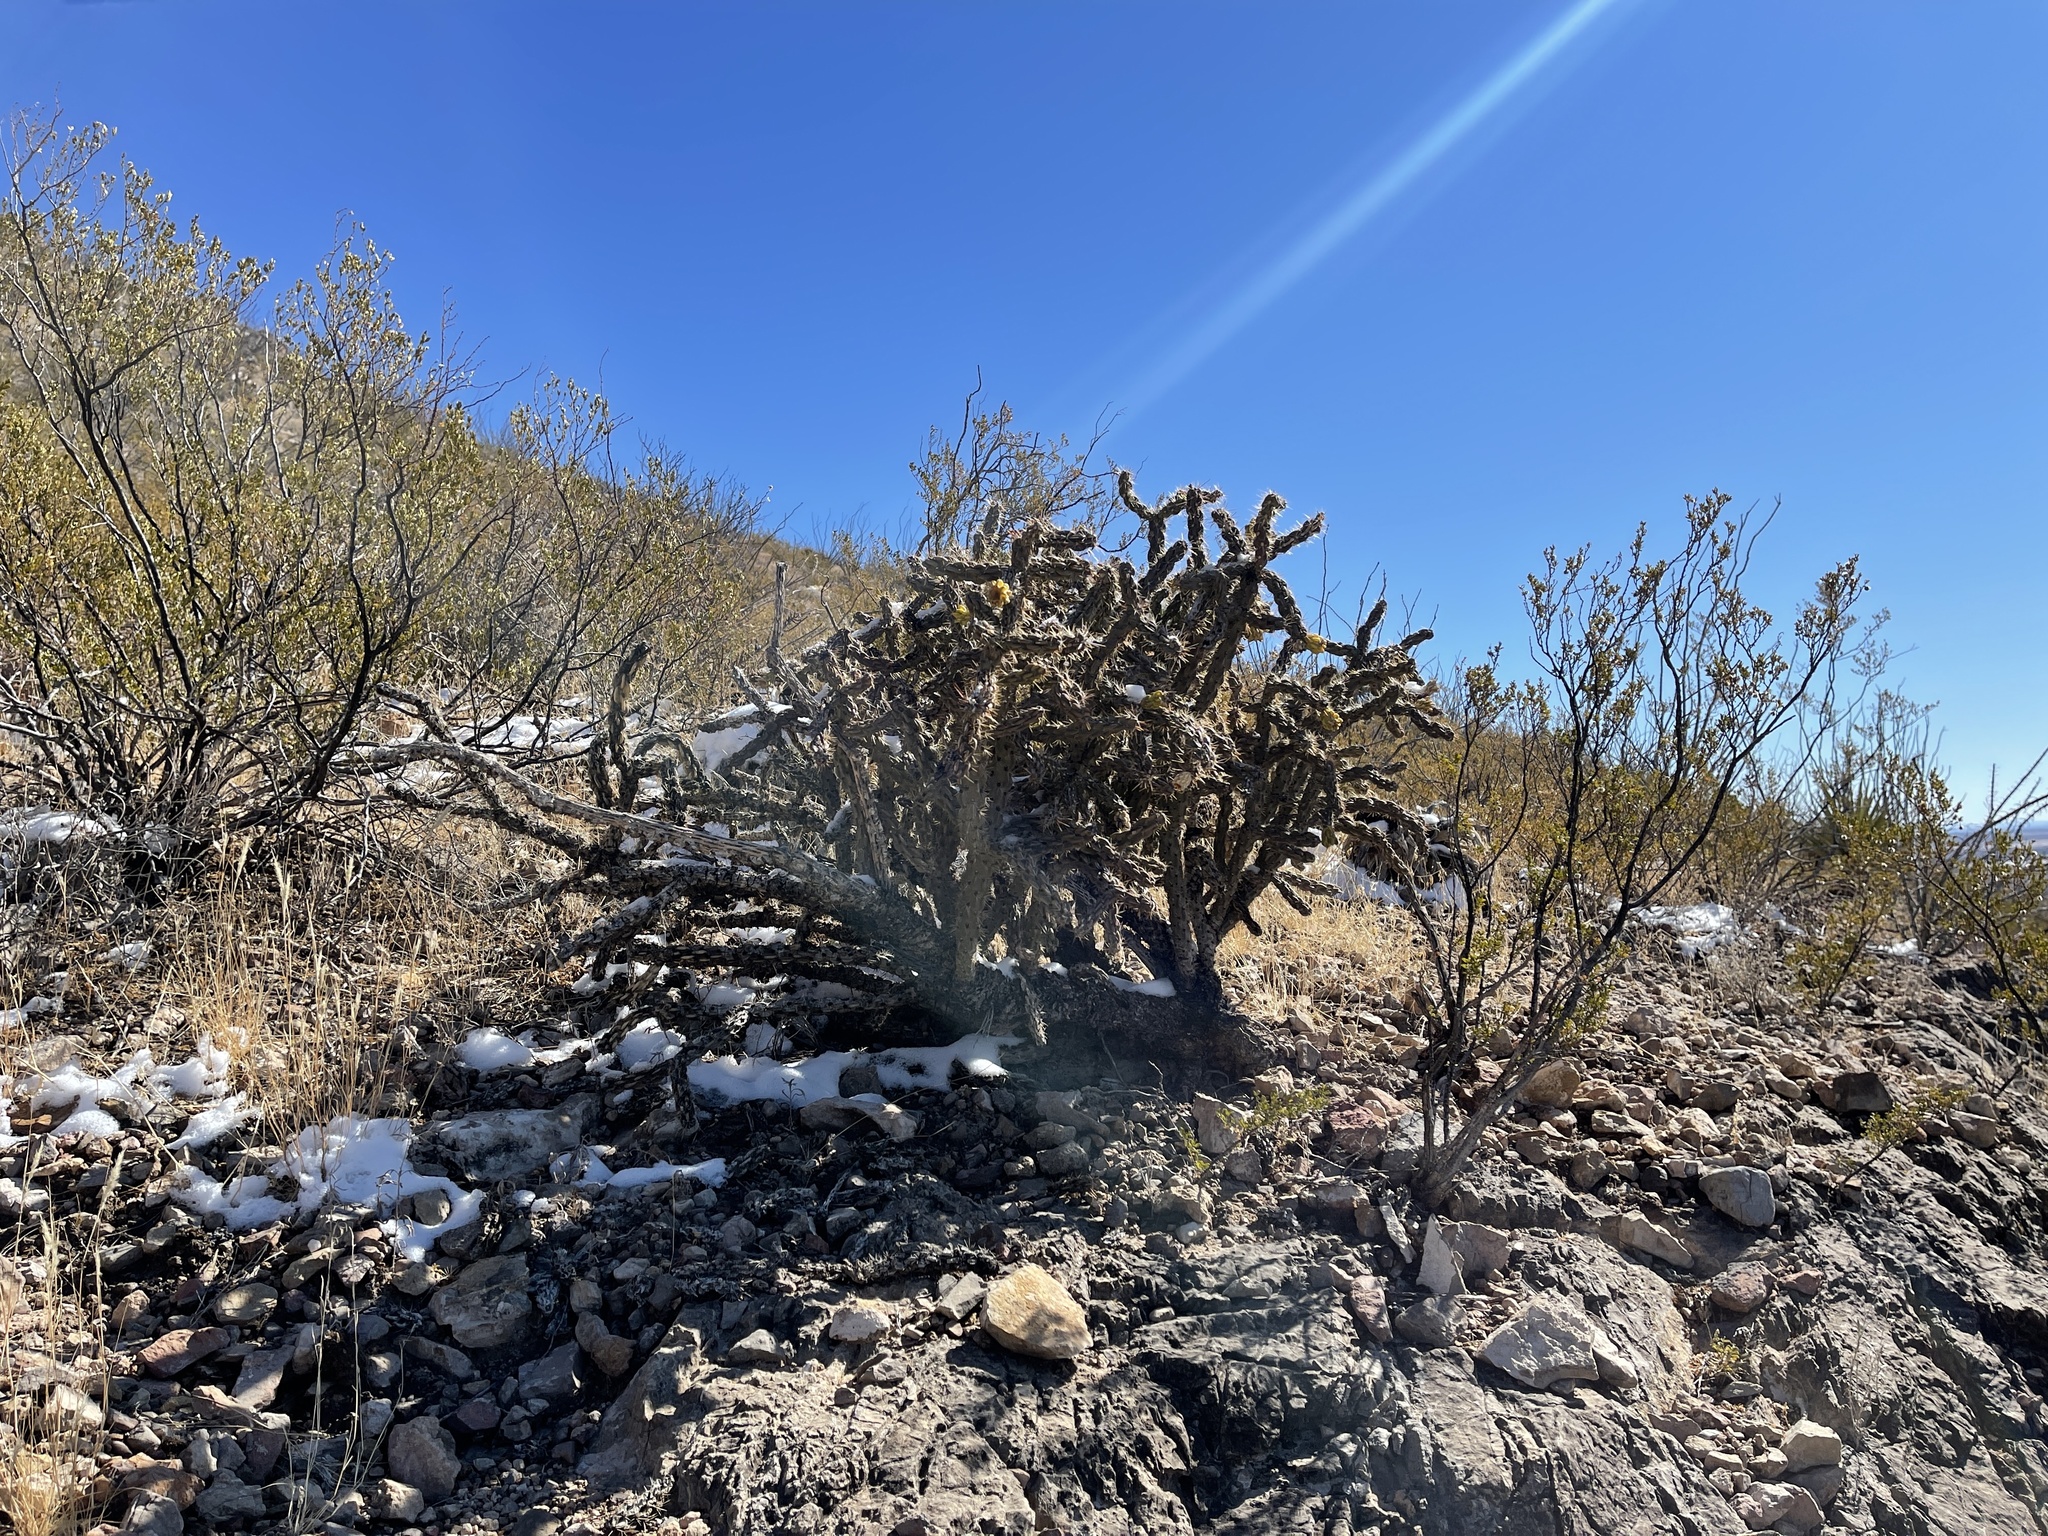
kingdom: Plantae
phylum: Tracheophyta
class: Magnoliopsida
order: Caryophyllales
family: Cactaceae
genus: Cylindropuntia
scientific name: Cylindropuntia imbricata
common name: Candelabrum cactus
